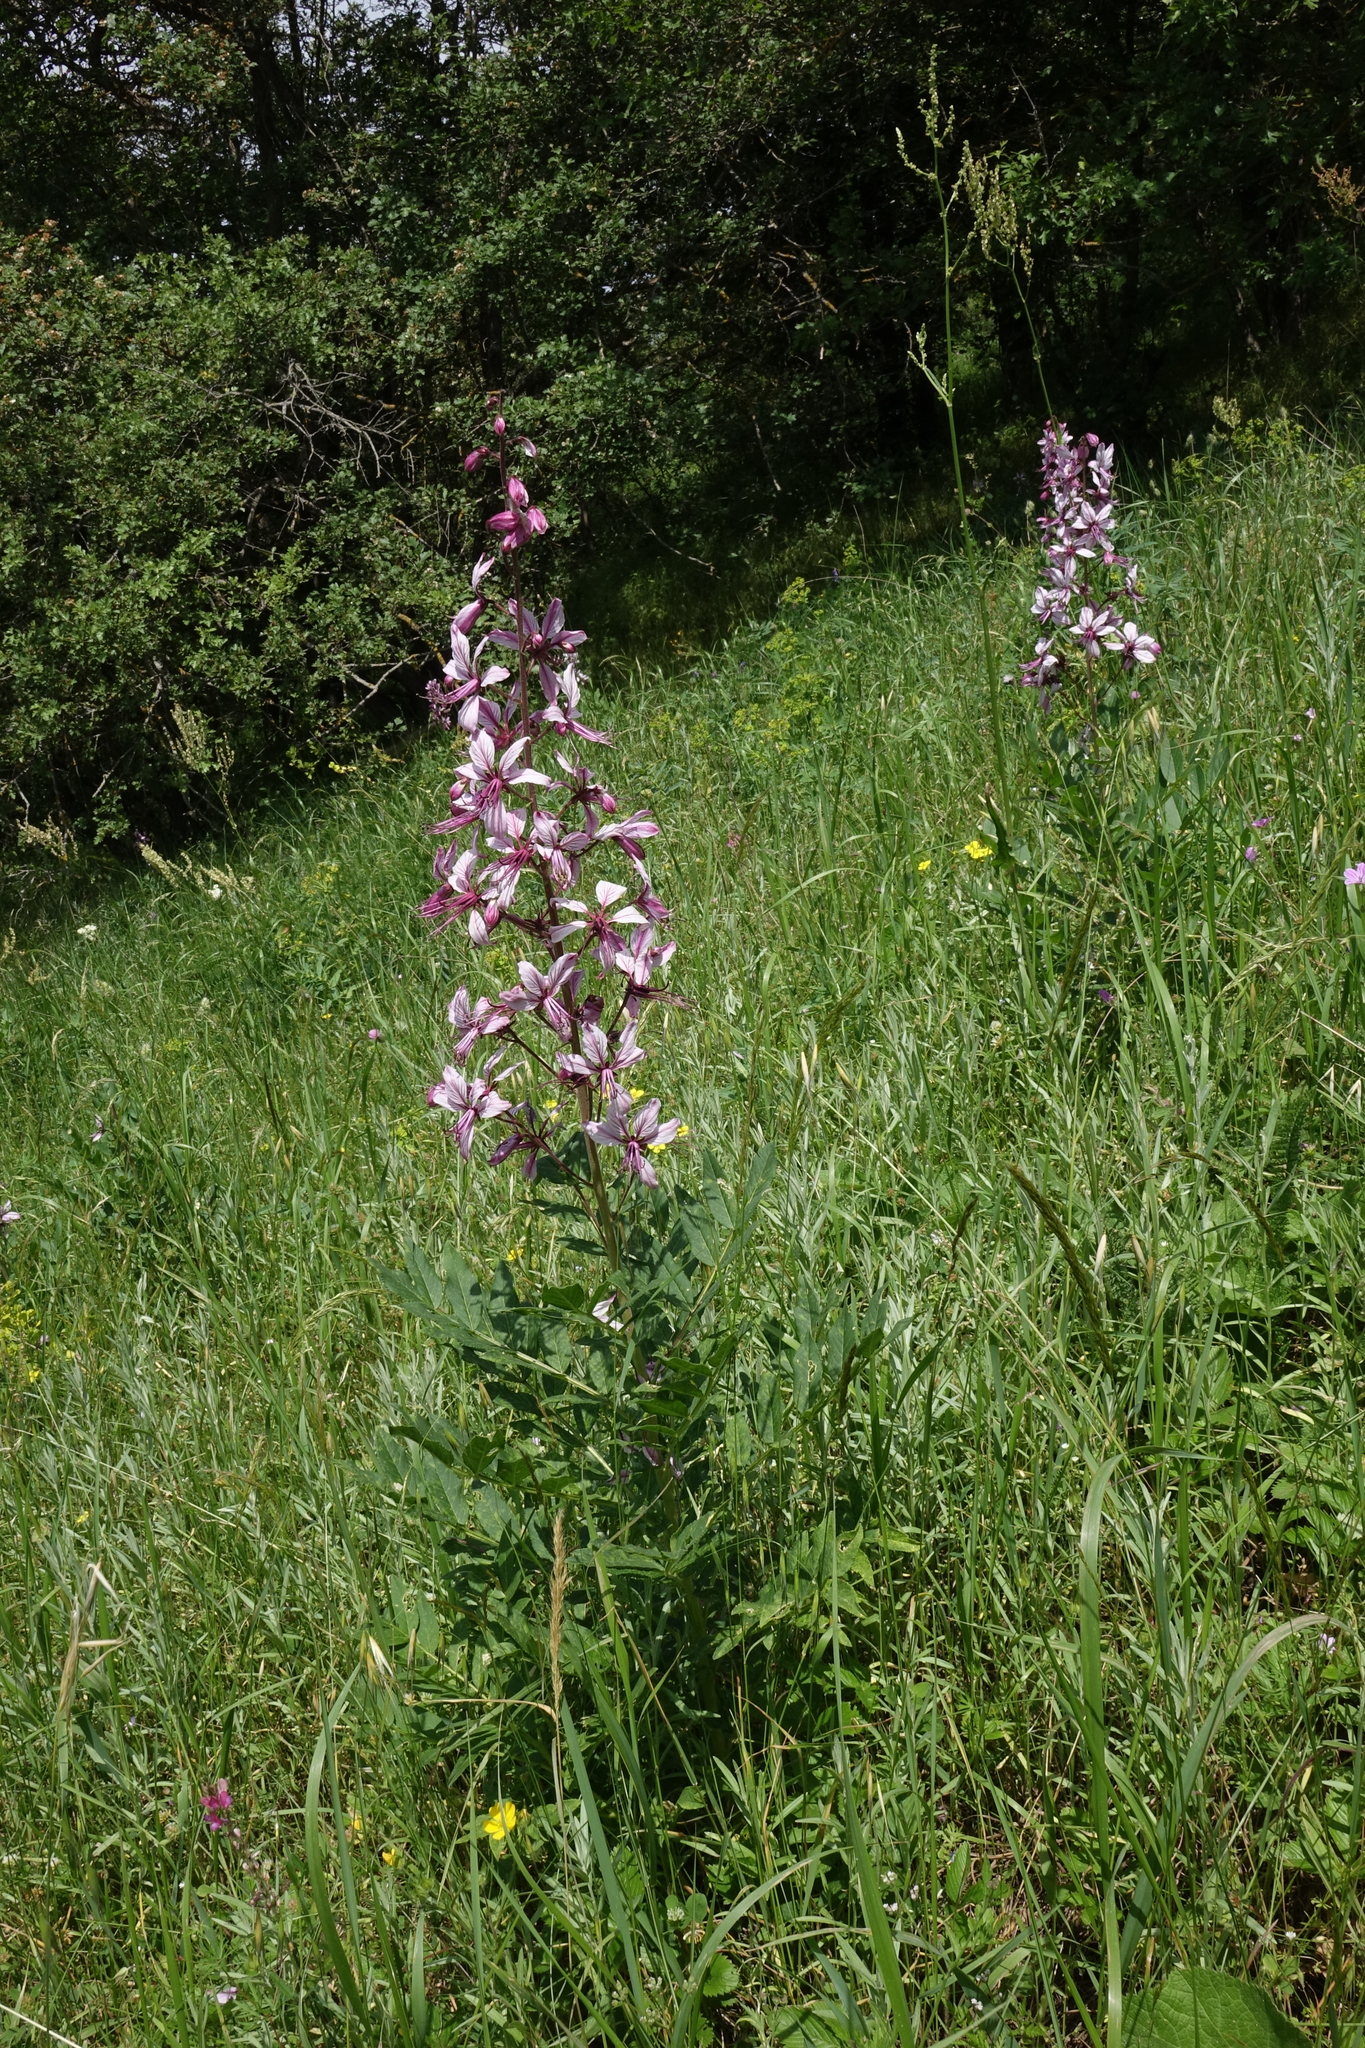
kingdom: Plantae
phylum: Tracheophyta
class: Magnoliopsida
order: Sapindales
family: Rutaceae
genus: Dictamnus
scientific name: Dictamnus albus
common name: Gasplant
